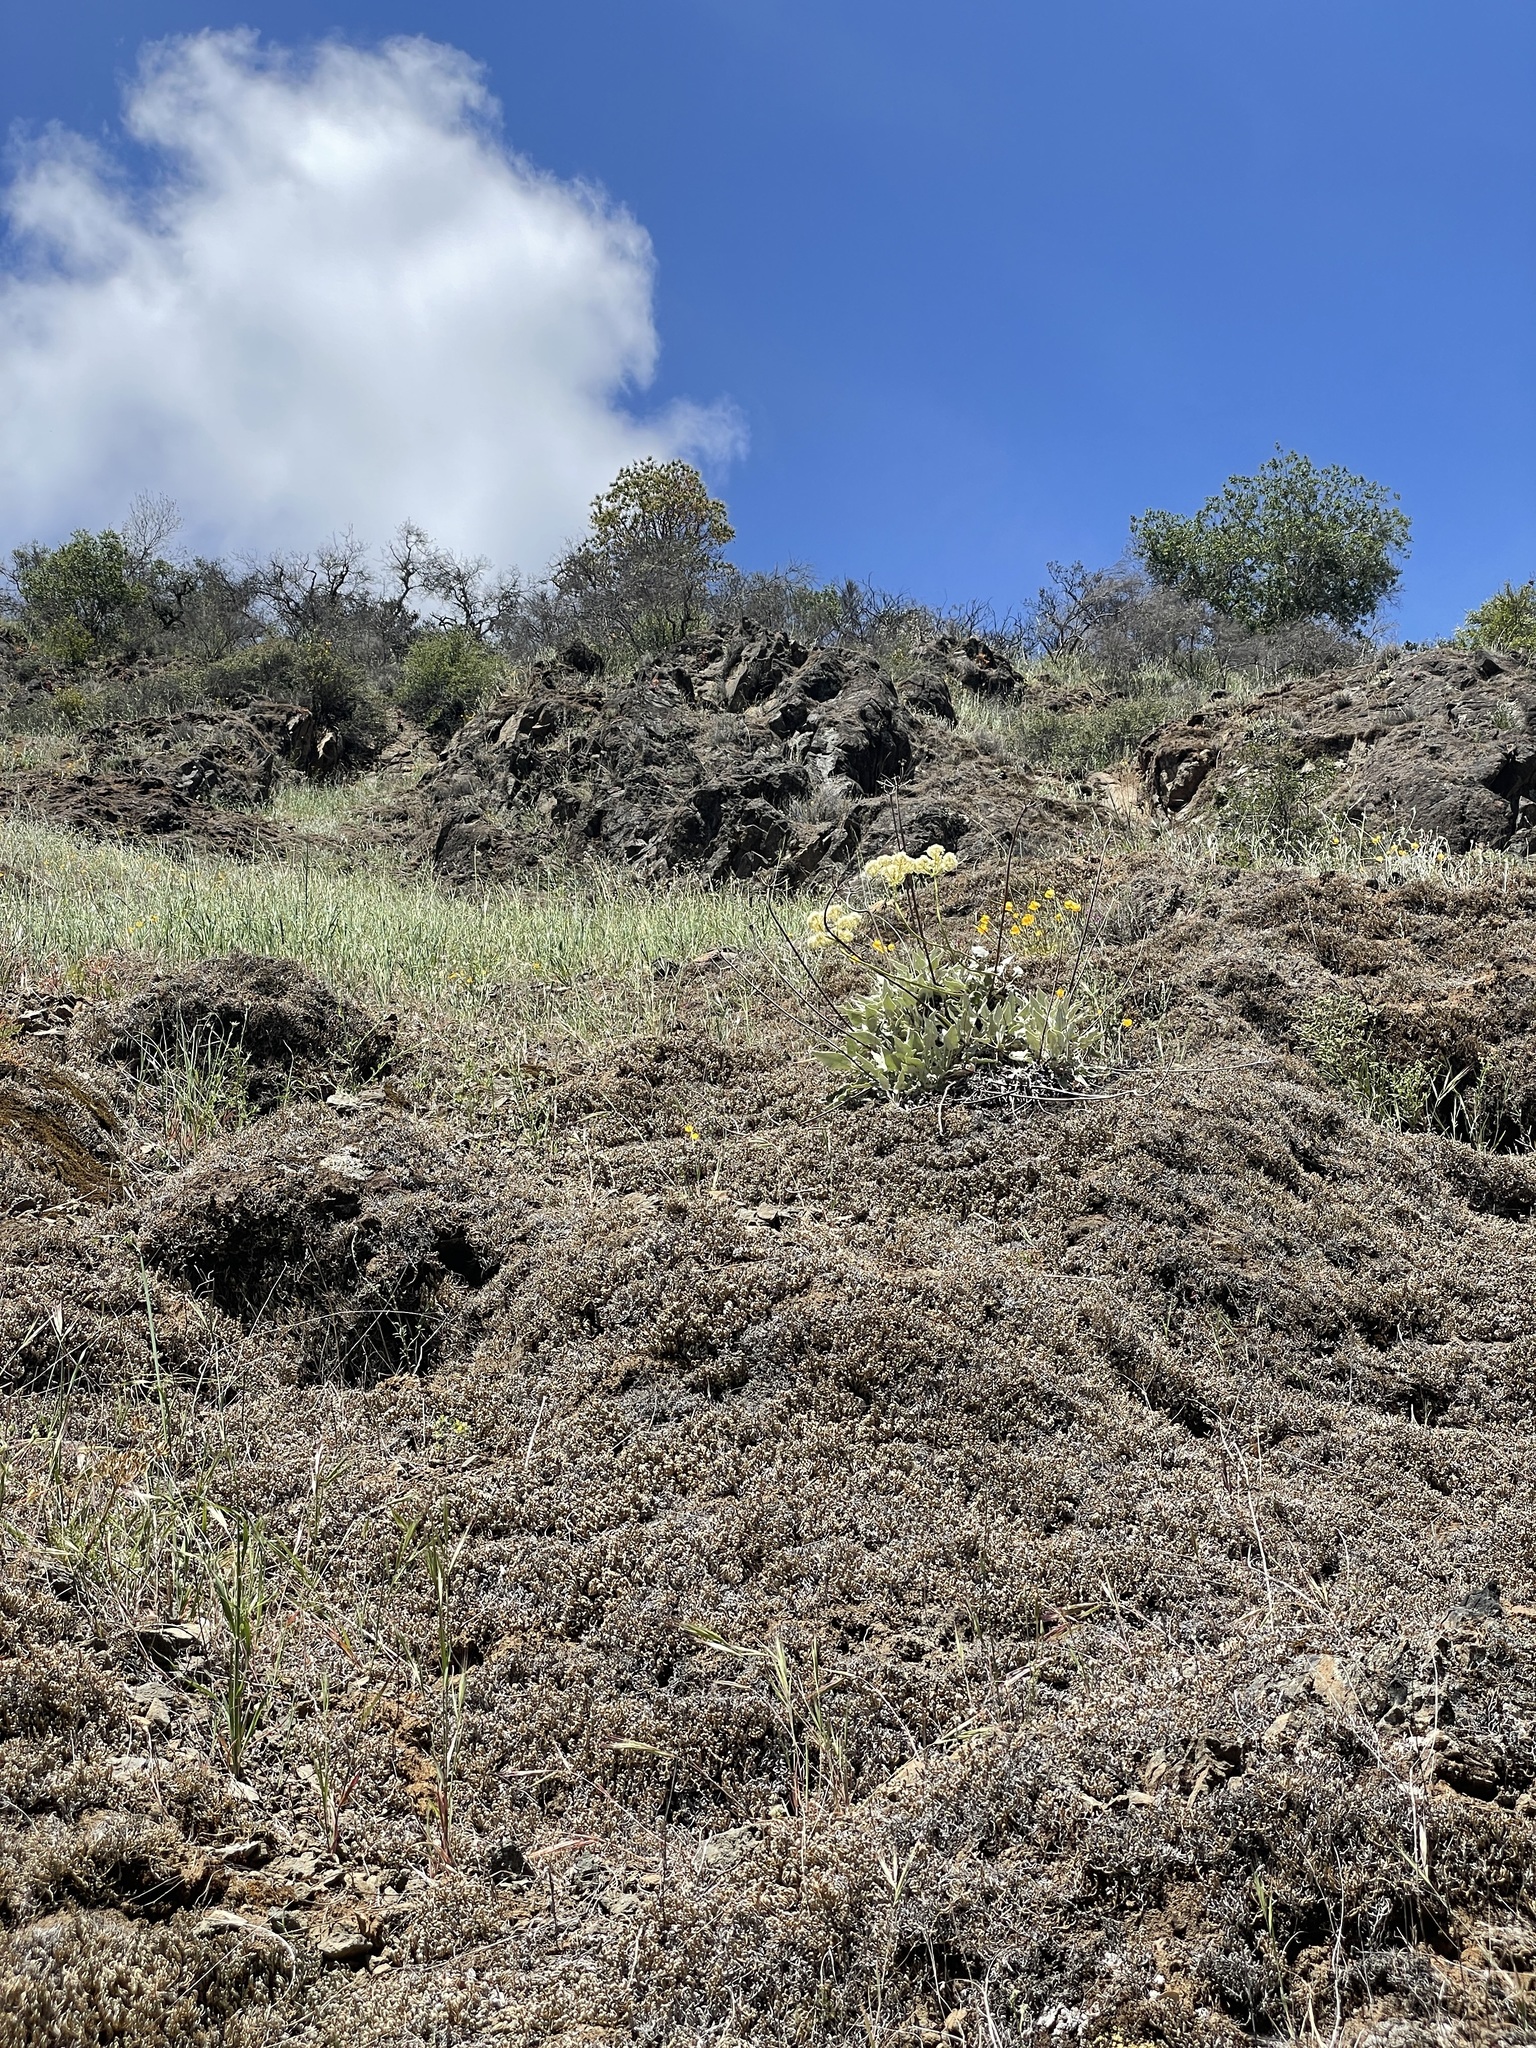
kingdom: Plantae
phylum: Tracheophyta
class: Magnoliopsida
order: Caryophyllales
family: Polygonaceae
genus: Eriogonum
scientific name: Eriogonum compositum
